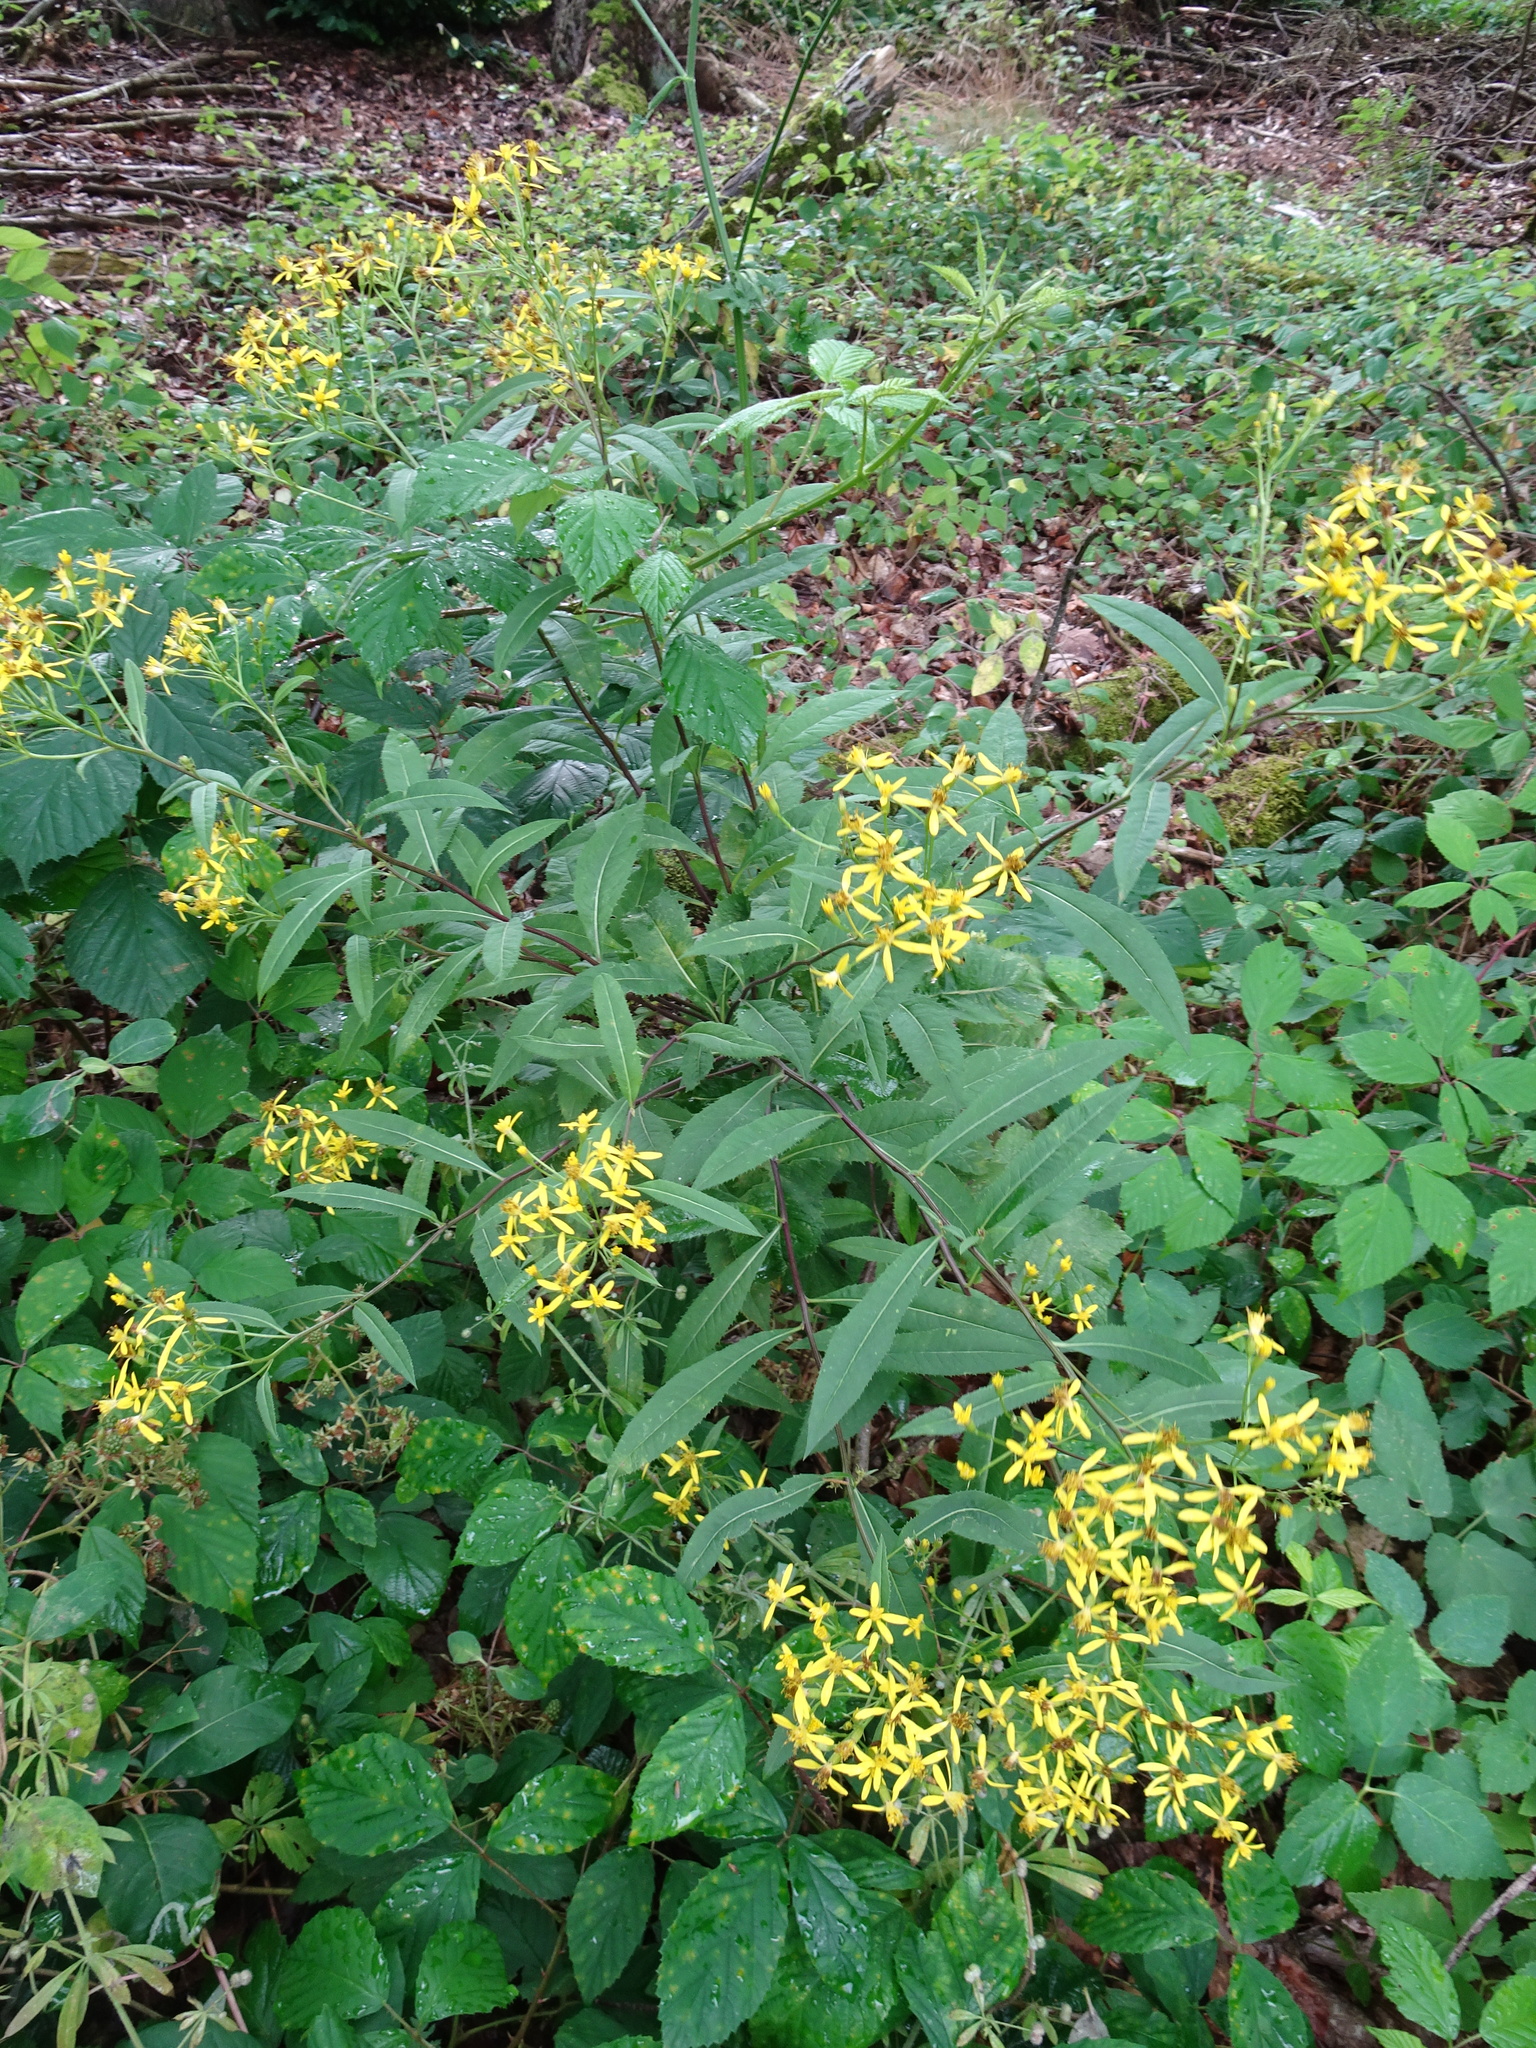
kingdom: Plantae
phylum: Tracheophyta
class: Magnoliopsida
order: Asterales
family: Asteraceae
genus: Senecio
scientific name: Senecio ovatus
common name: Wood ragwort
